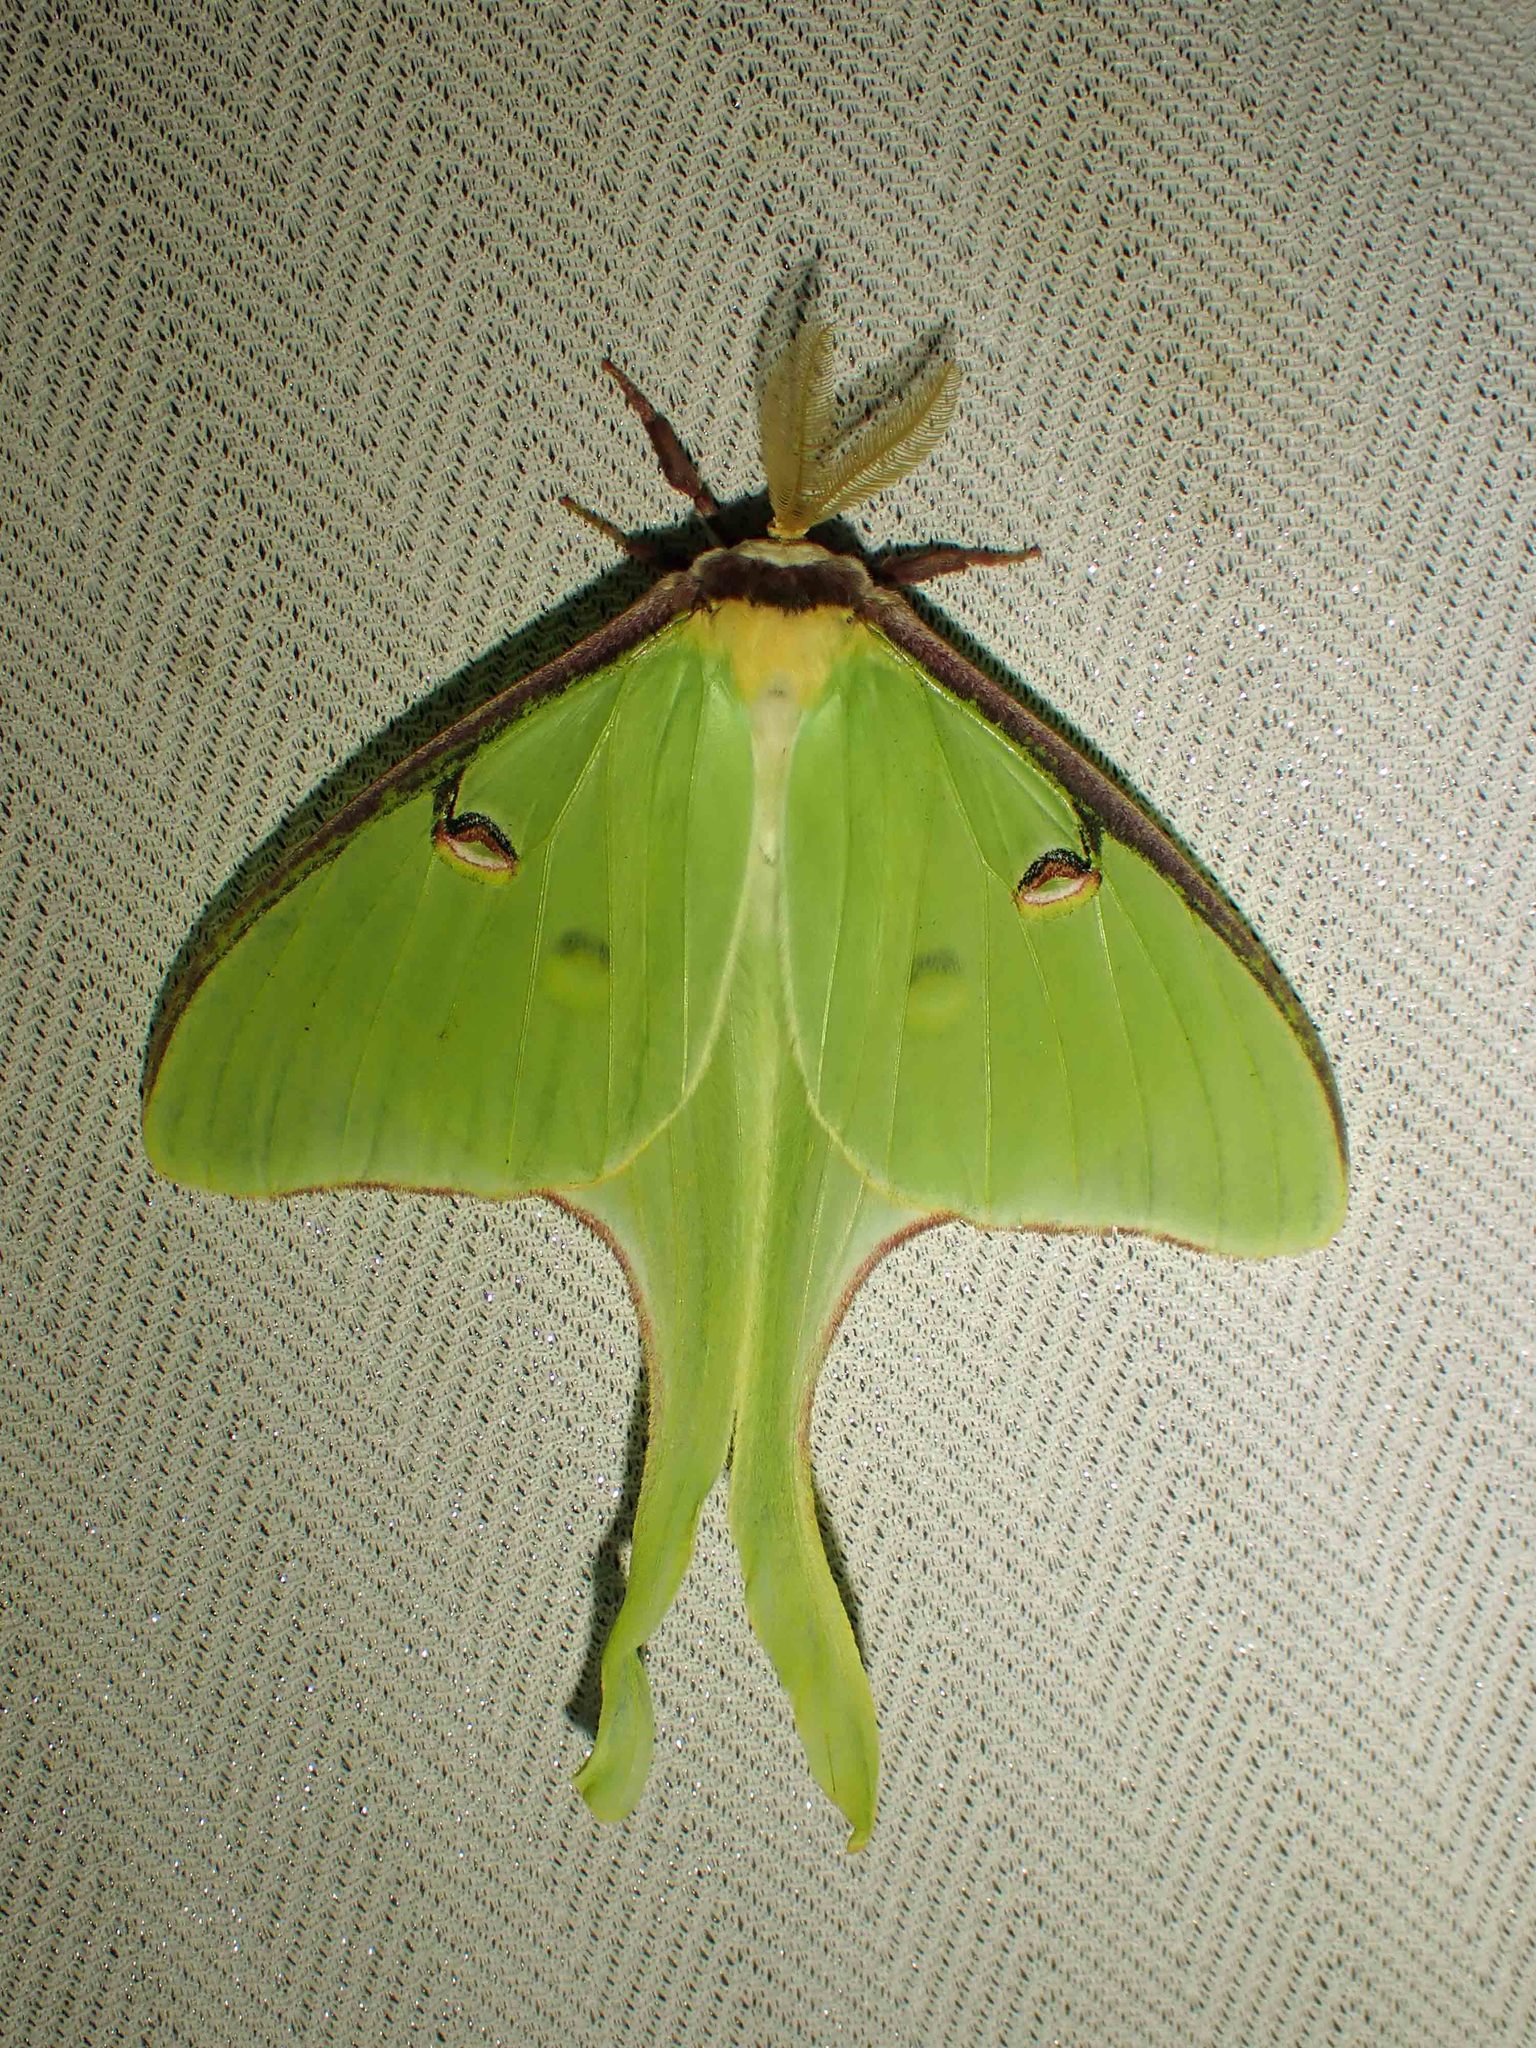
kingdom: Animalia
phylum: Arthropoda
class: Insecta
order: Lepidoptera
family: Saturniidae
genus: Actias
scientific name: Actias luna
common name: Luna moth
